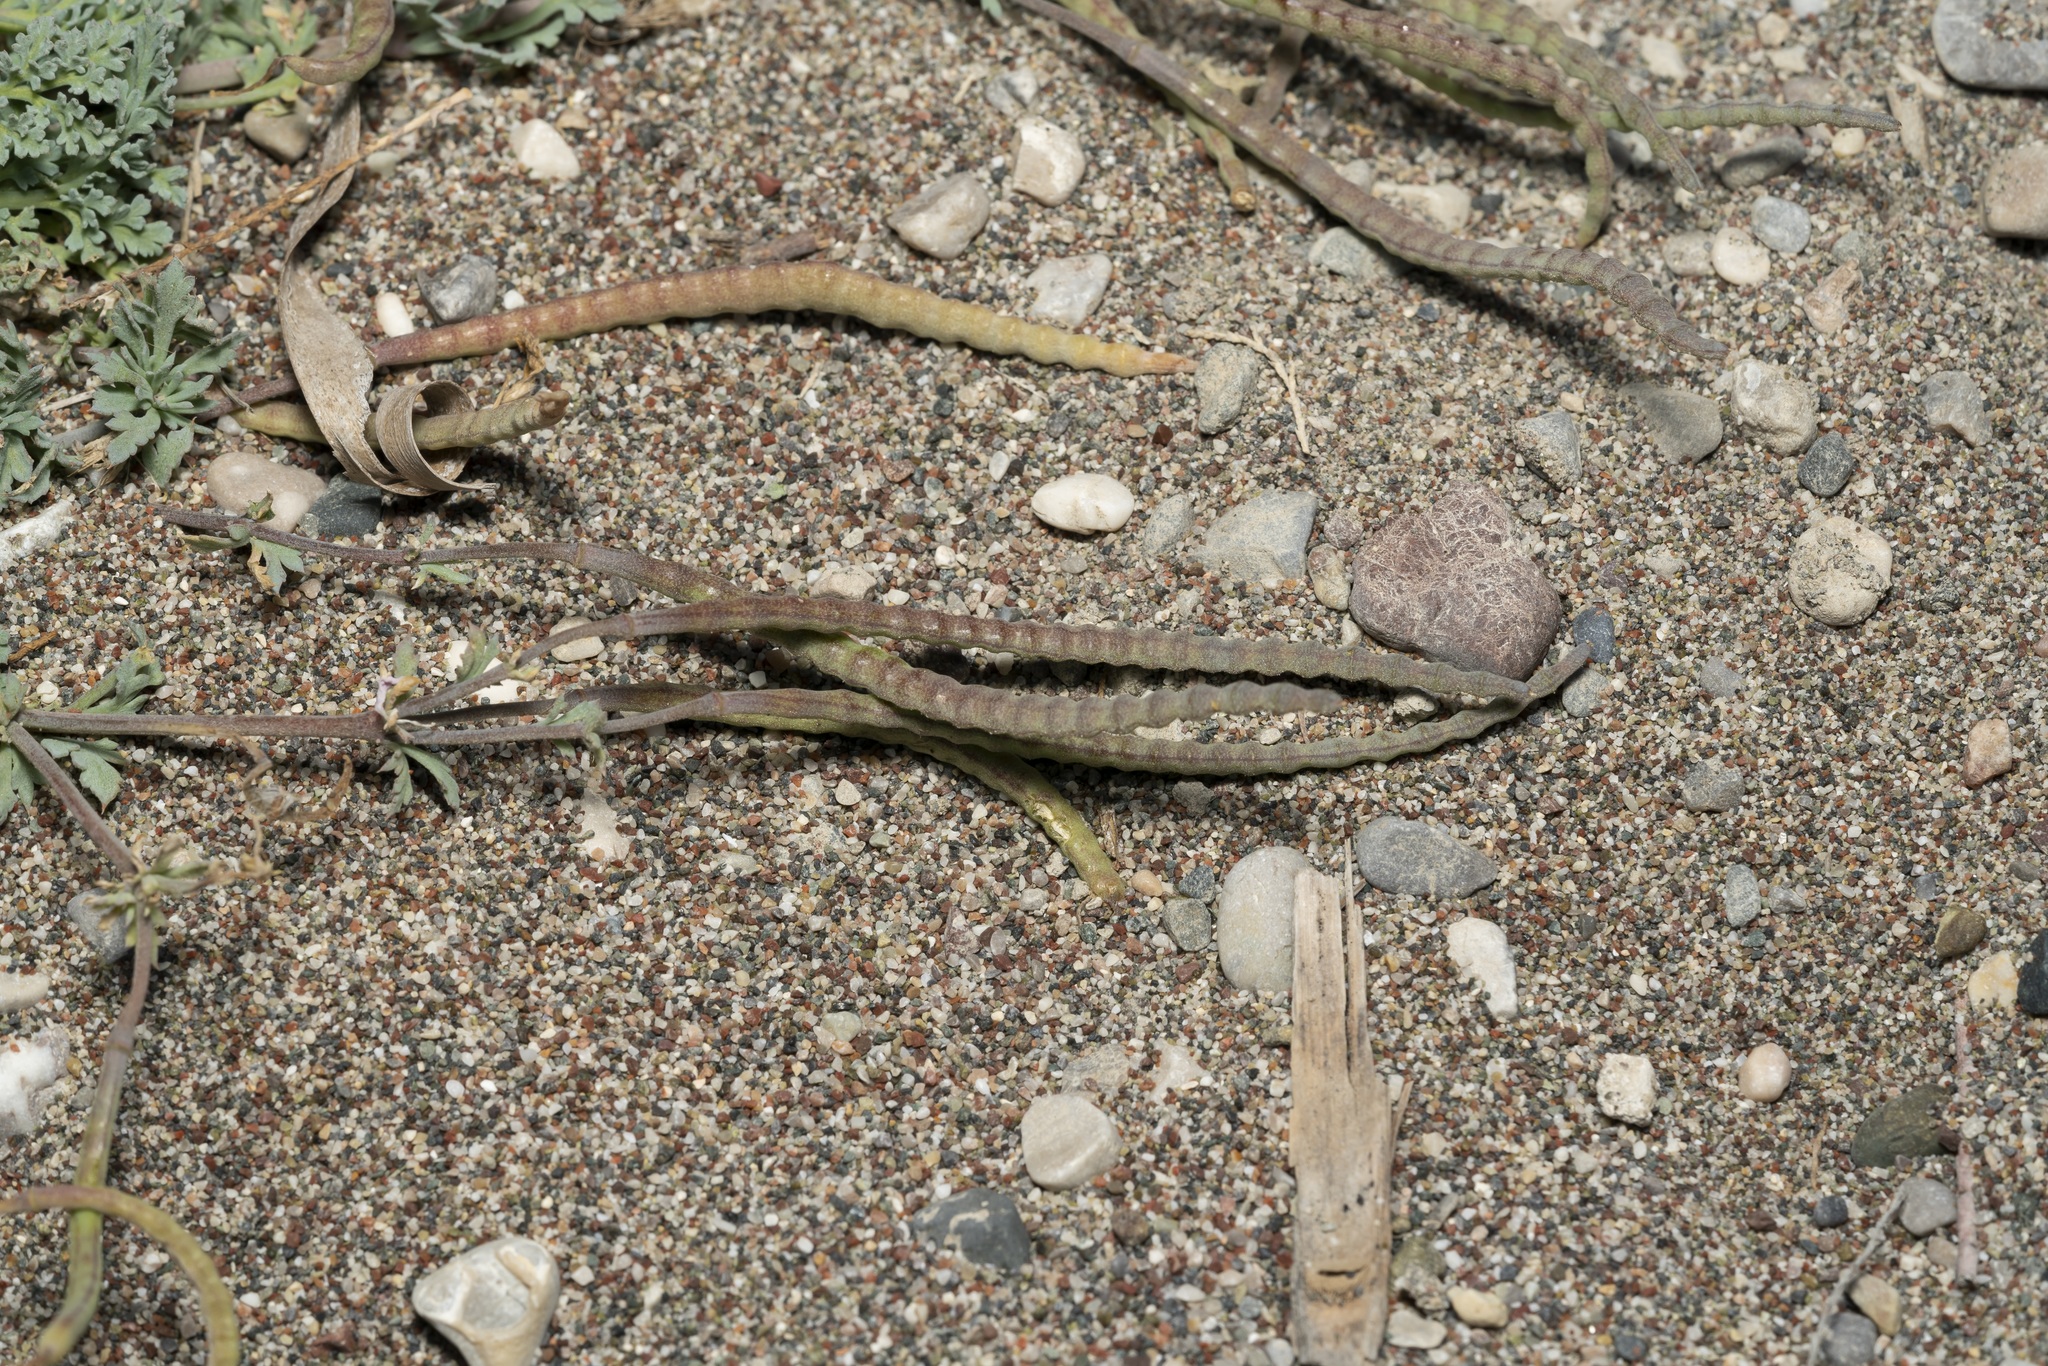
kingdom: Plantae
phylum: Tracheophyta
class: Magnoliopsida
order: Ranunculales
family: Papaveraceae
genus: Hypecoum
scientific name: Hypecoum torulosum
